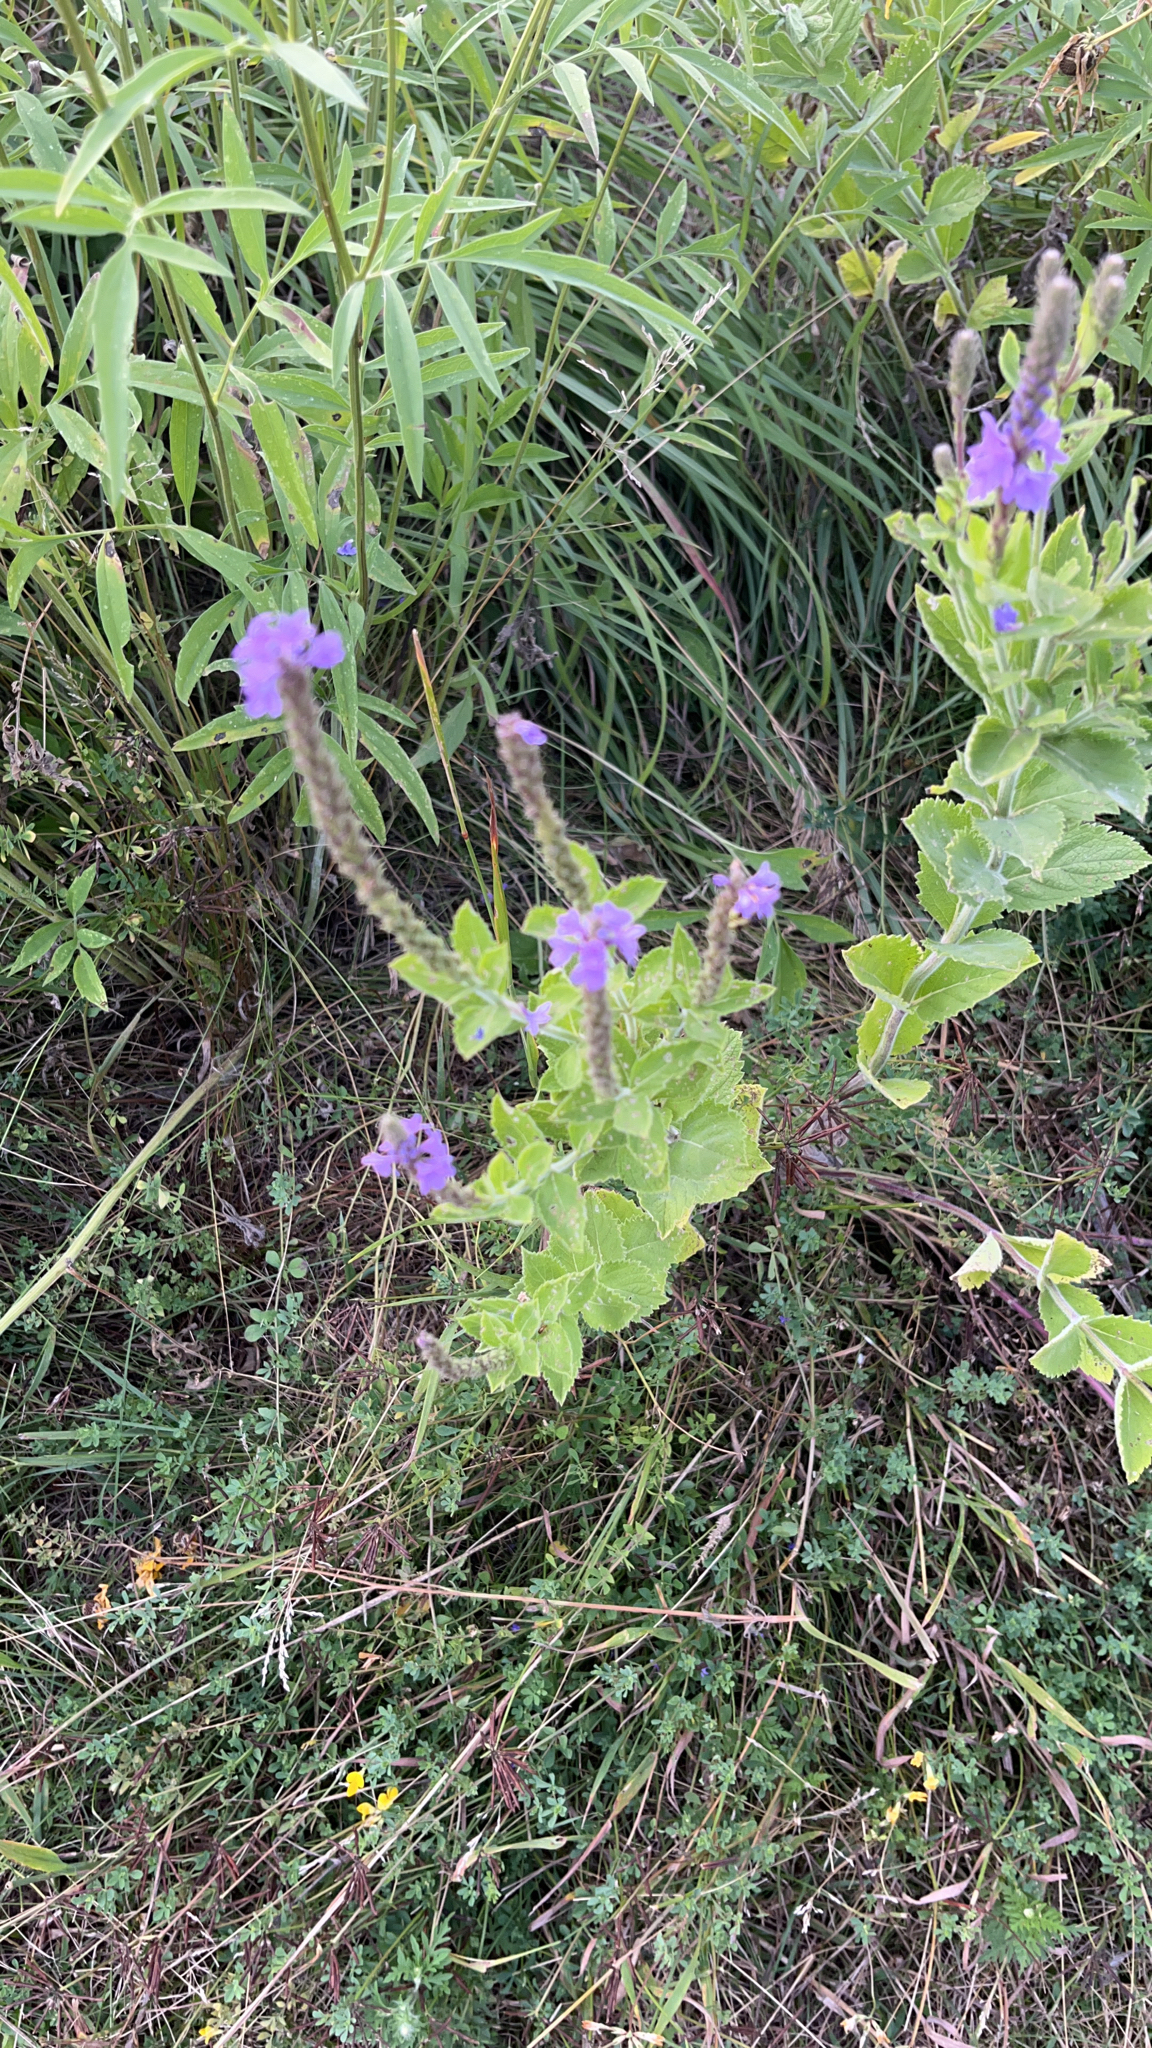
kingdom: Plantae
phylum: Tracheophyta
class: Magnoliopsida
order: Lamiales
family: Verbenaceae
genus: Verbena
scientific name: Verbena stricta
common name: Hoary vervain
